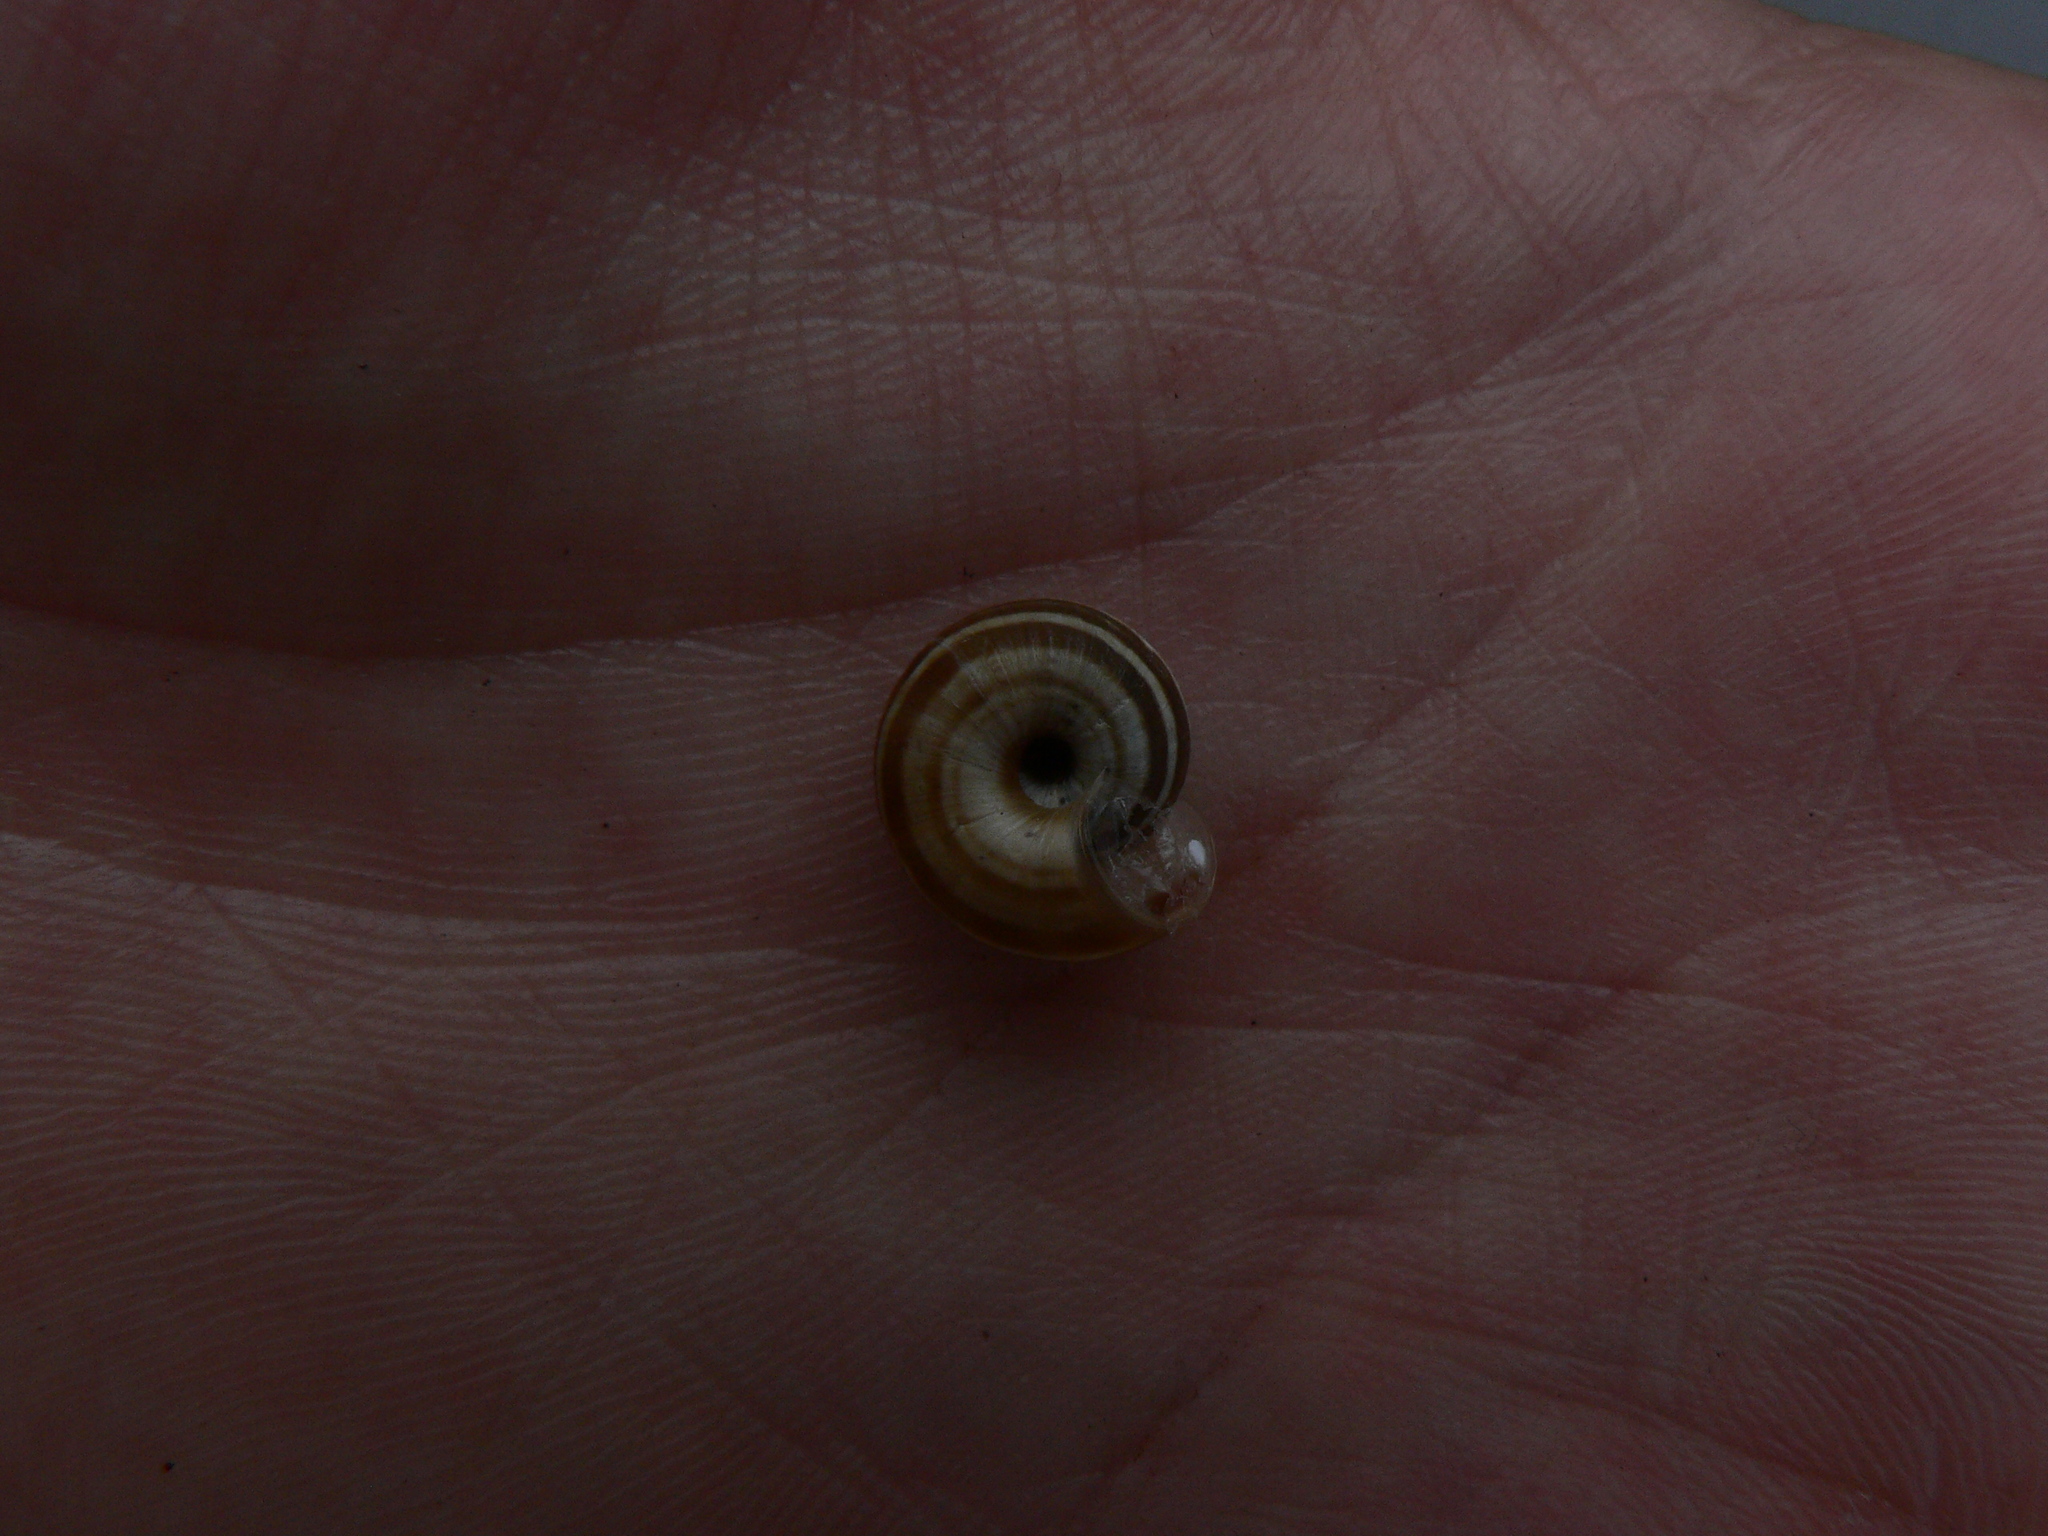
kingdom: Animalia
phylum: Mollusca
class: Gastropoda
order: Stylommatophora
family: Geomitridae
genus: Helicella
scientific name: Helicella itala
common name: Heath snail
